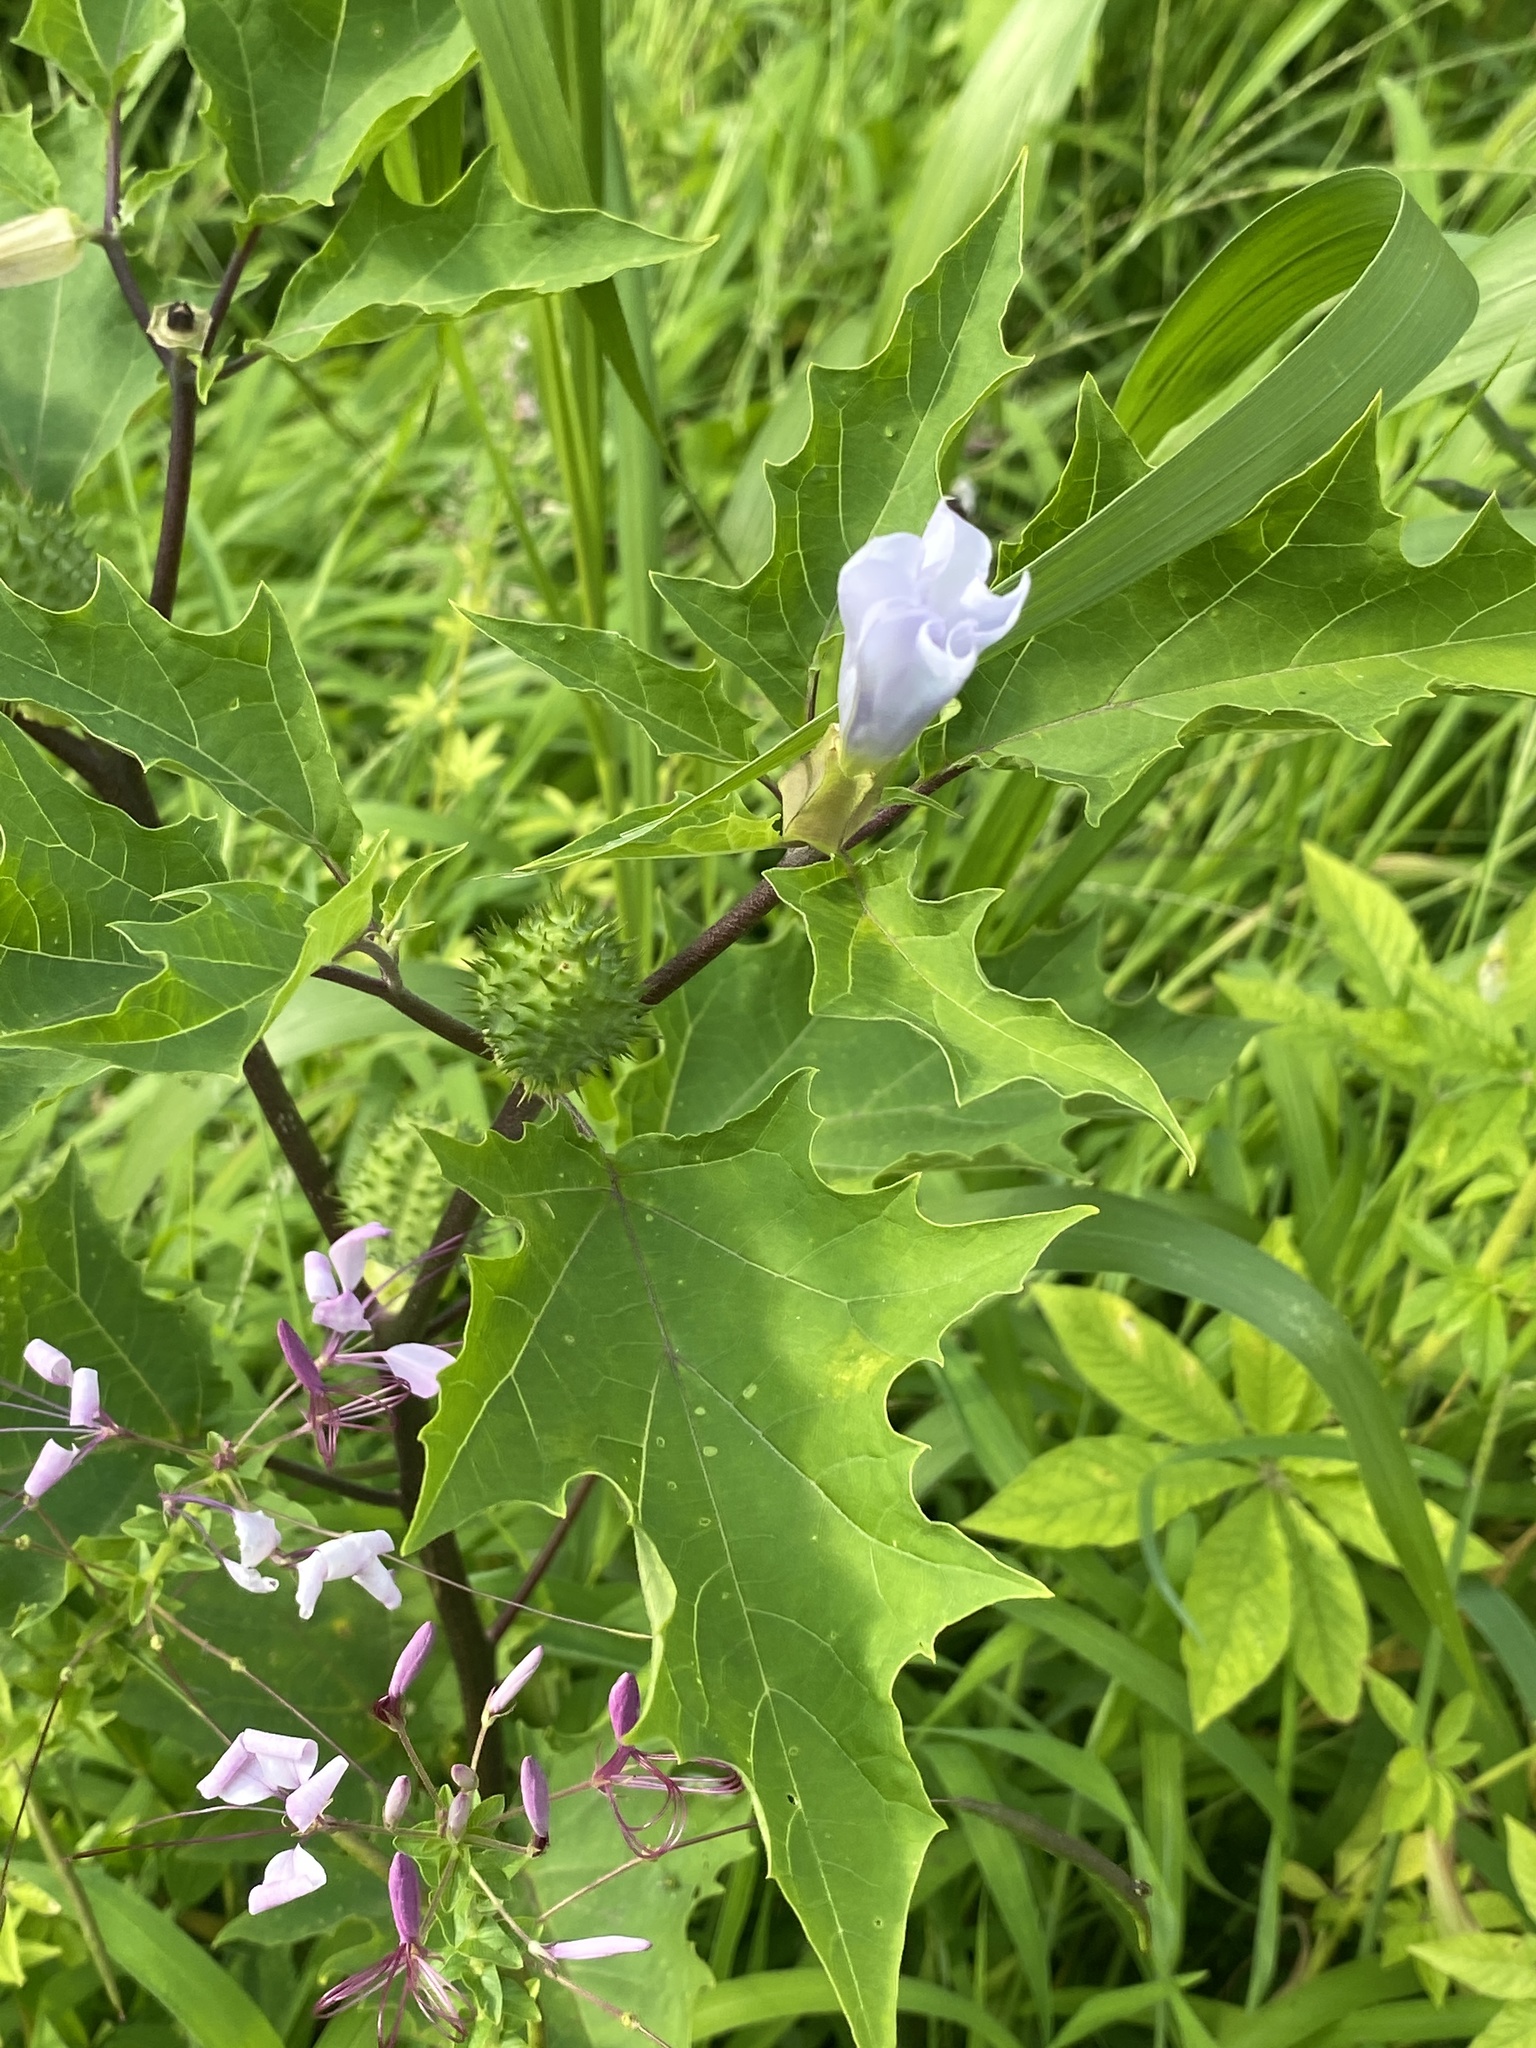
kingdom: Plantae
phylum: Tracheophyta
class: Magnoliopsida
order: Solanales
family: Solanaceae
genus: Datura
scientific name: Datura stramonium
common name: Thorn-apple
